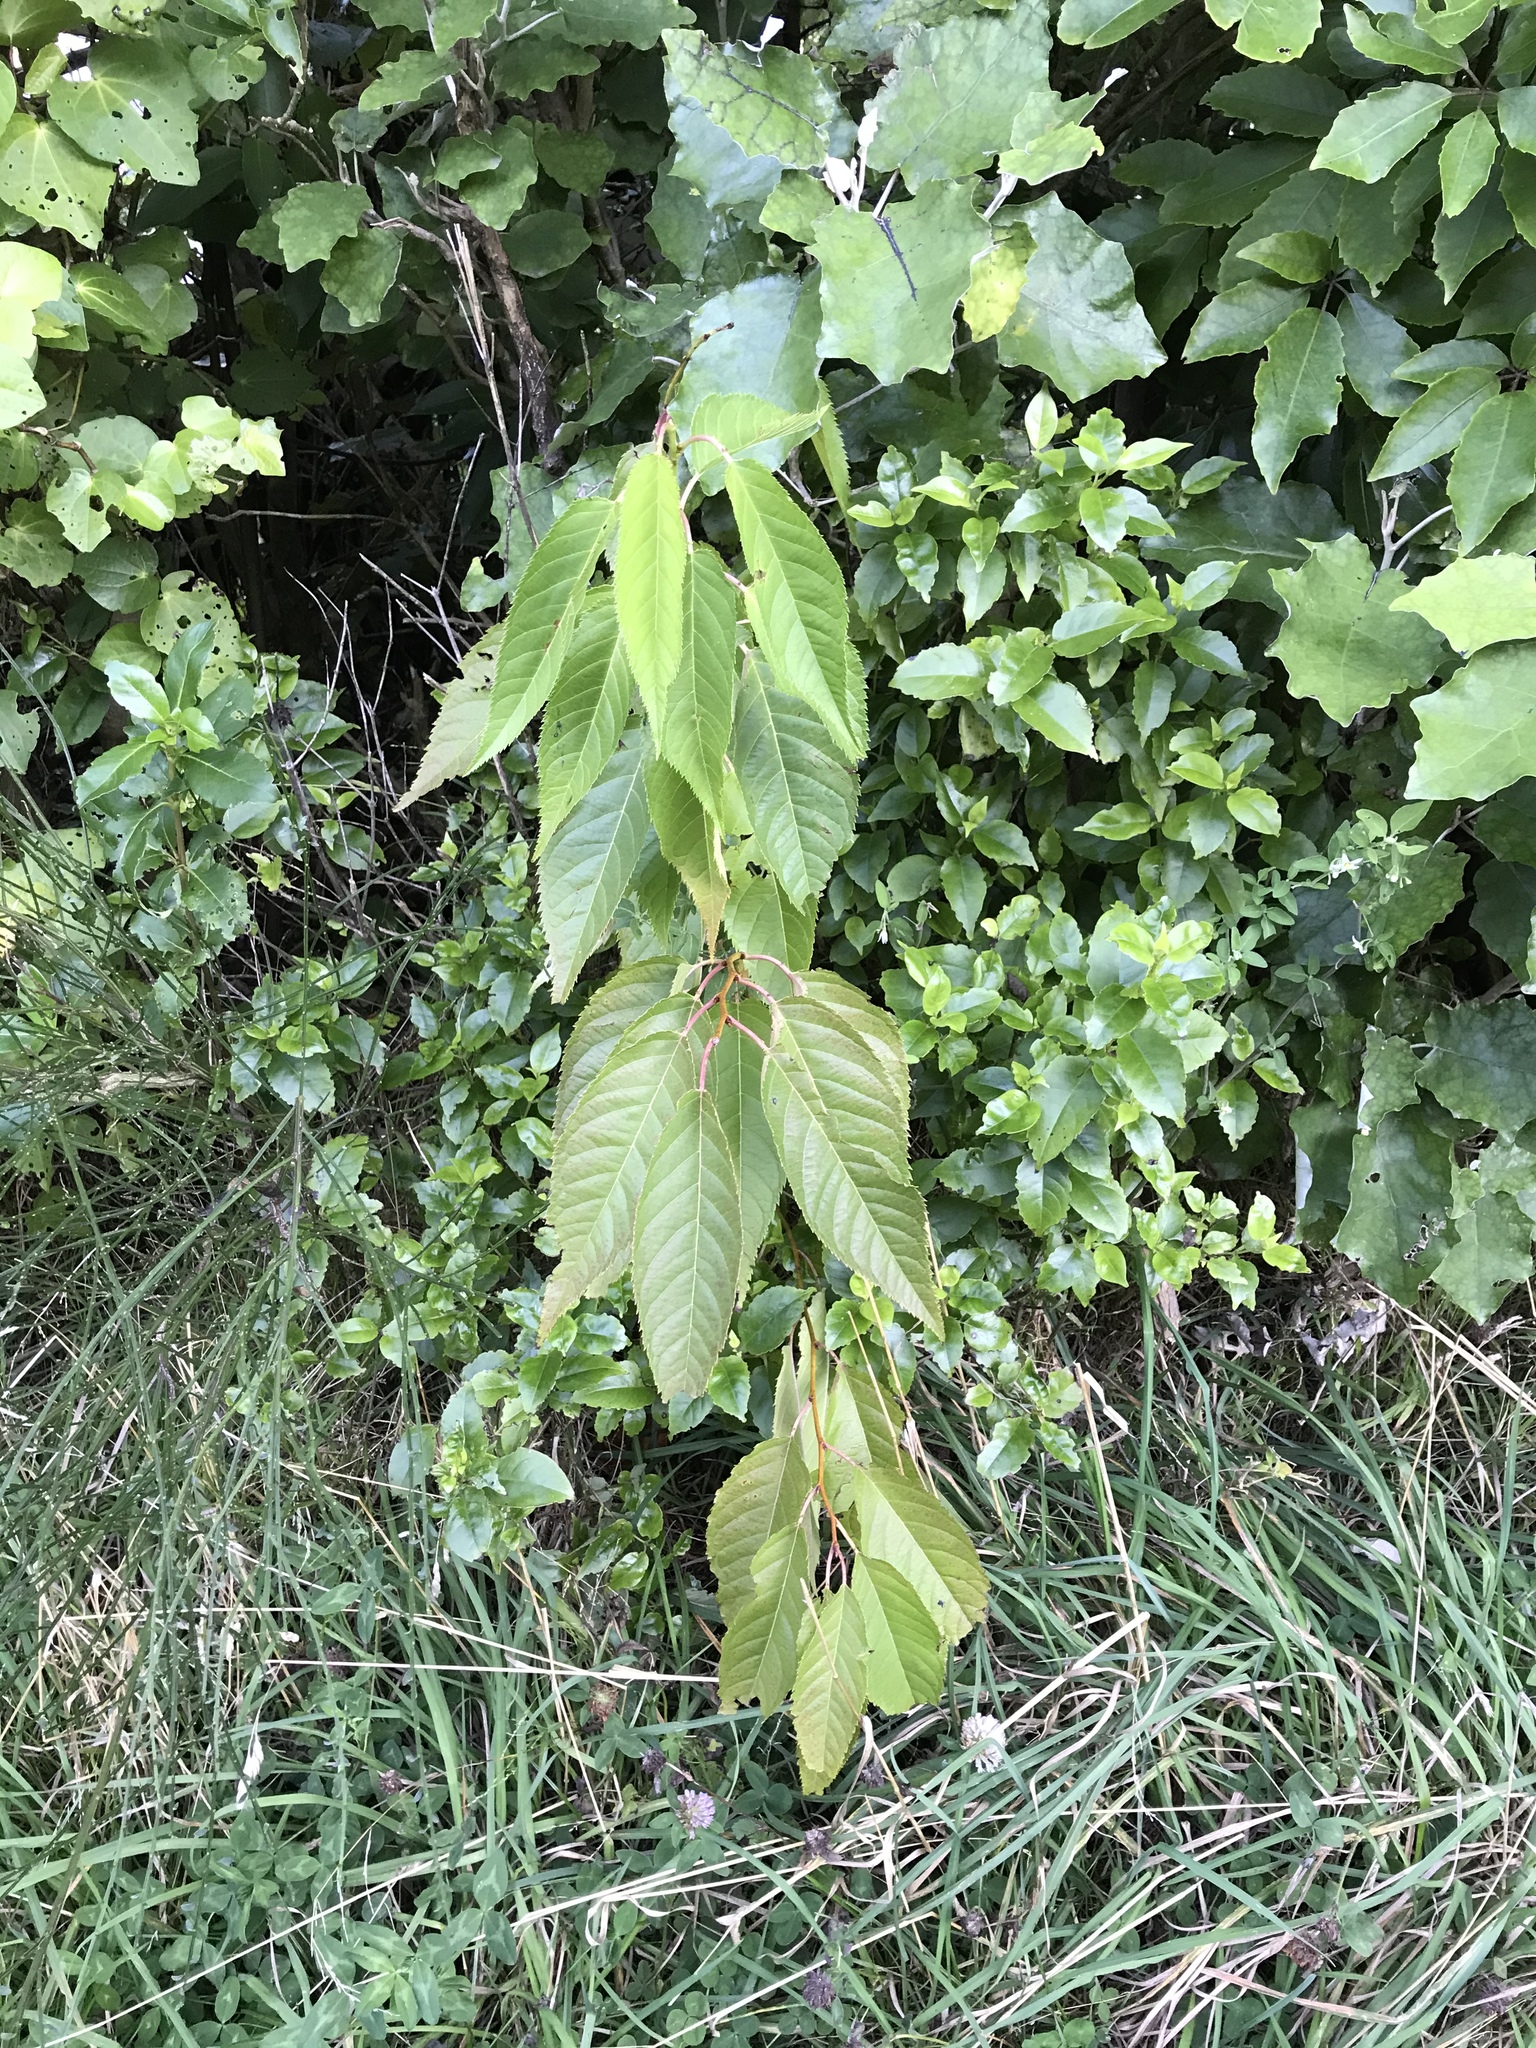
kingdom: Plantae
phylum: Tracheophyta
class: Magnoliopsida
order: Rosales
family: Rosaceae
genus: Prunus
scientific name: Prunus serrulata
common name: Japanese cherry
